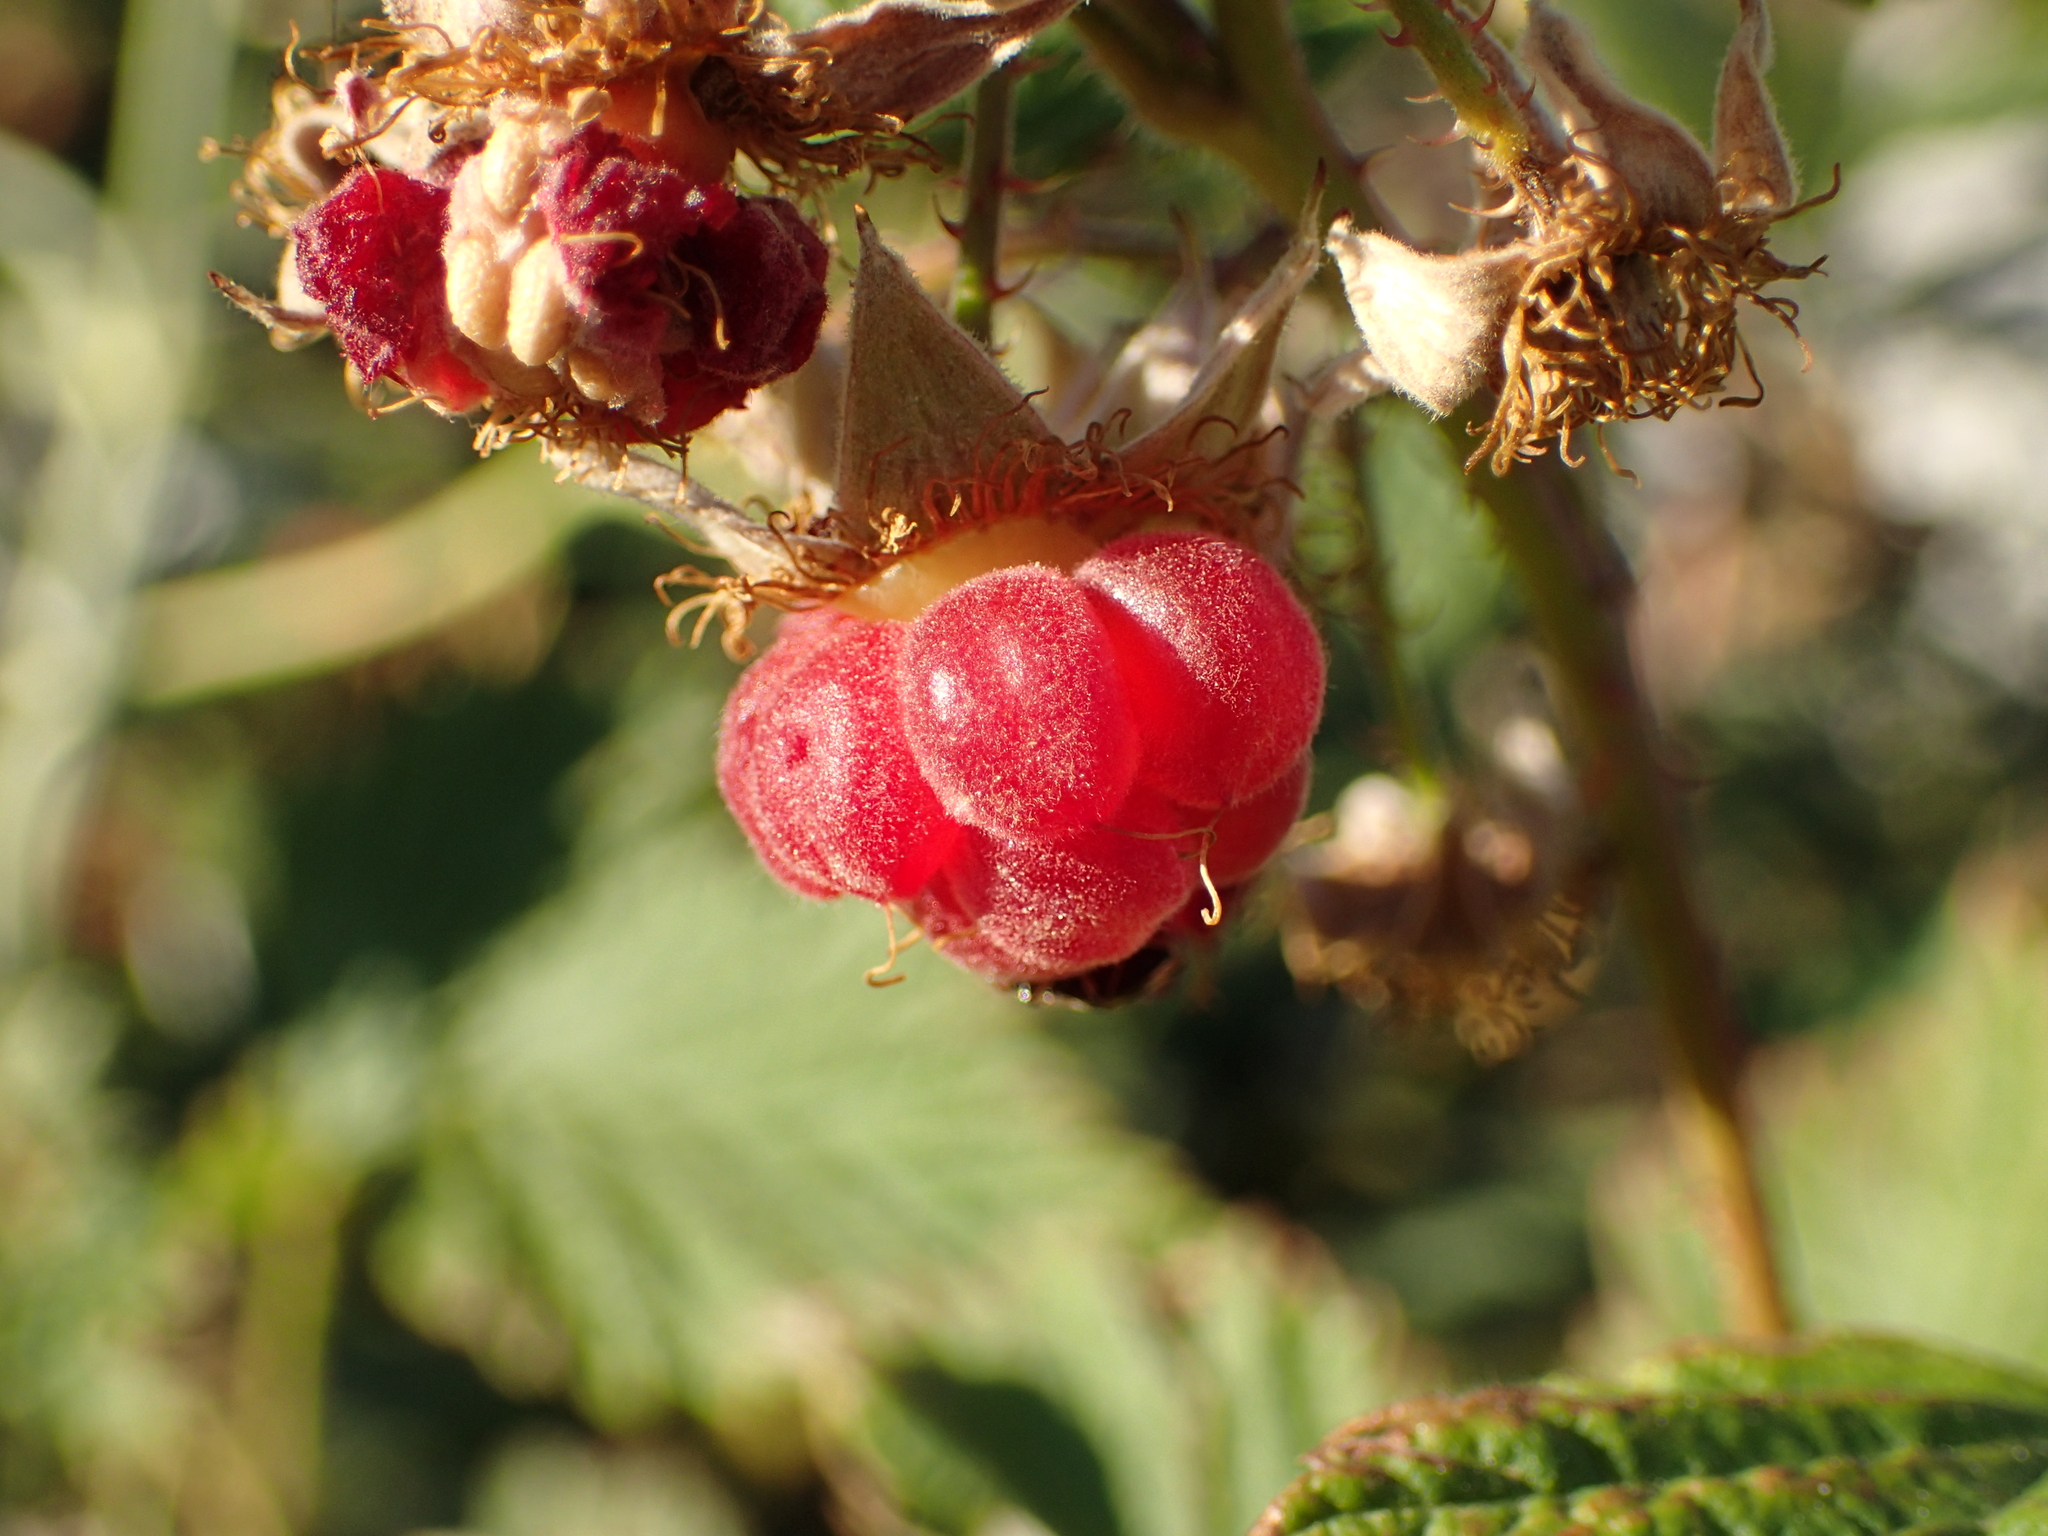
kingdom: Plantae
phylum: Tracheophyta
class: Magnoliopsida
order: Rosales
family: Rosaceae
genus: Rubus
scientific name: Rubus idaeus
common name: Raspberry
